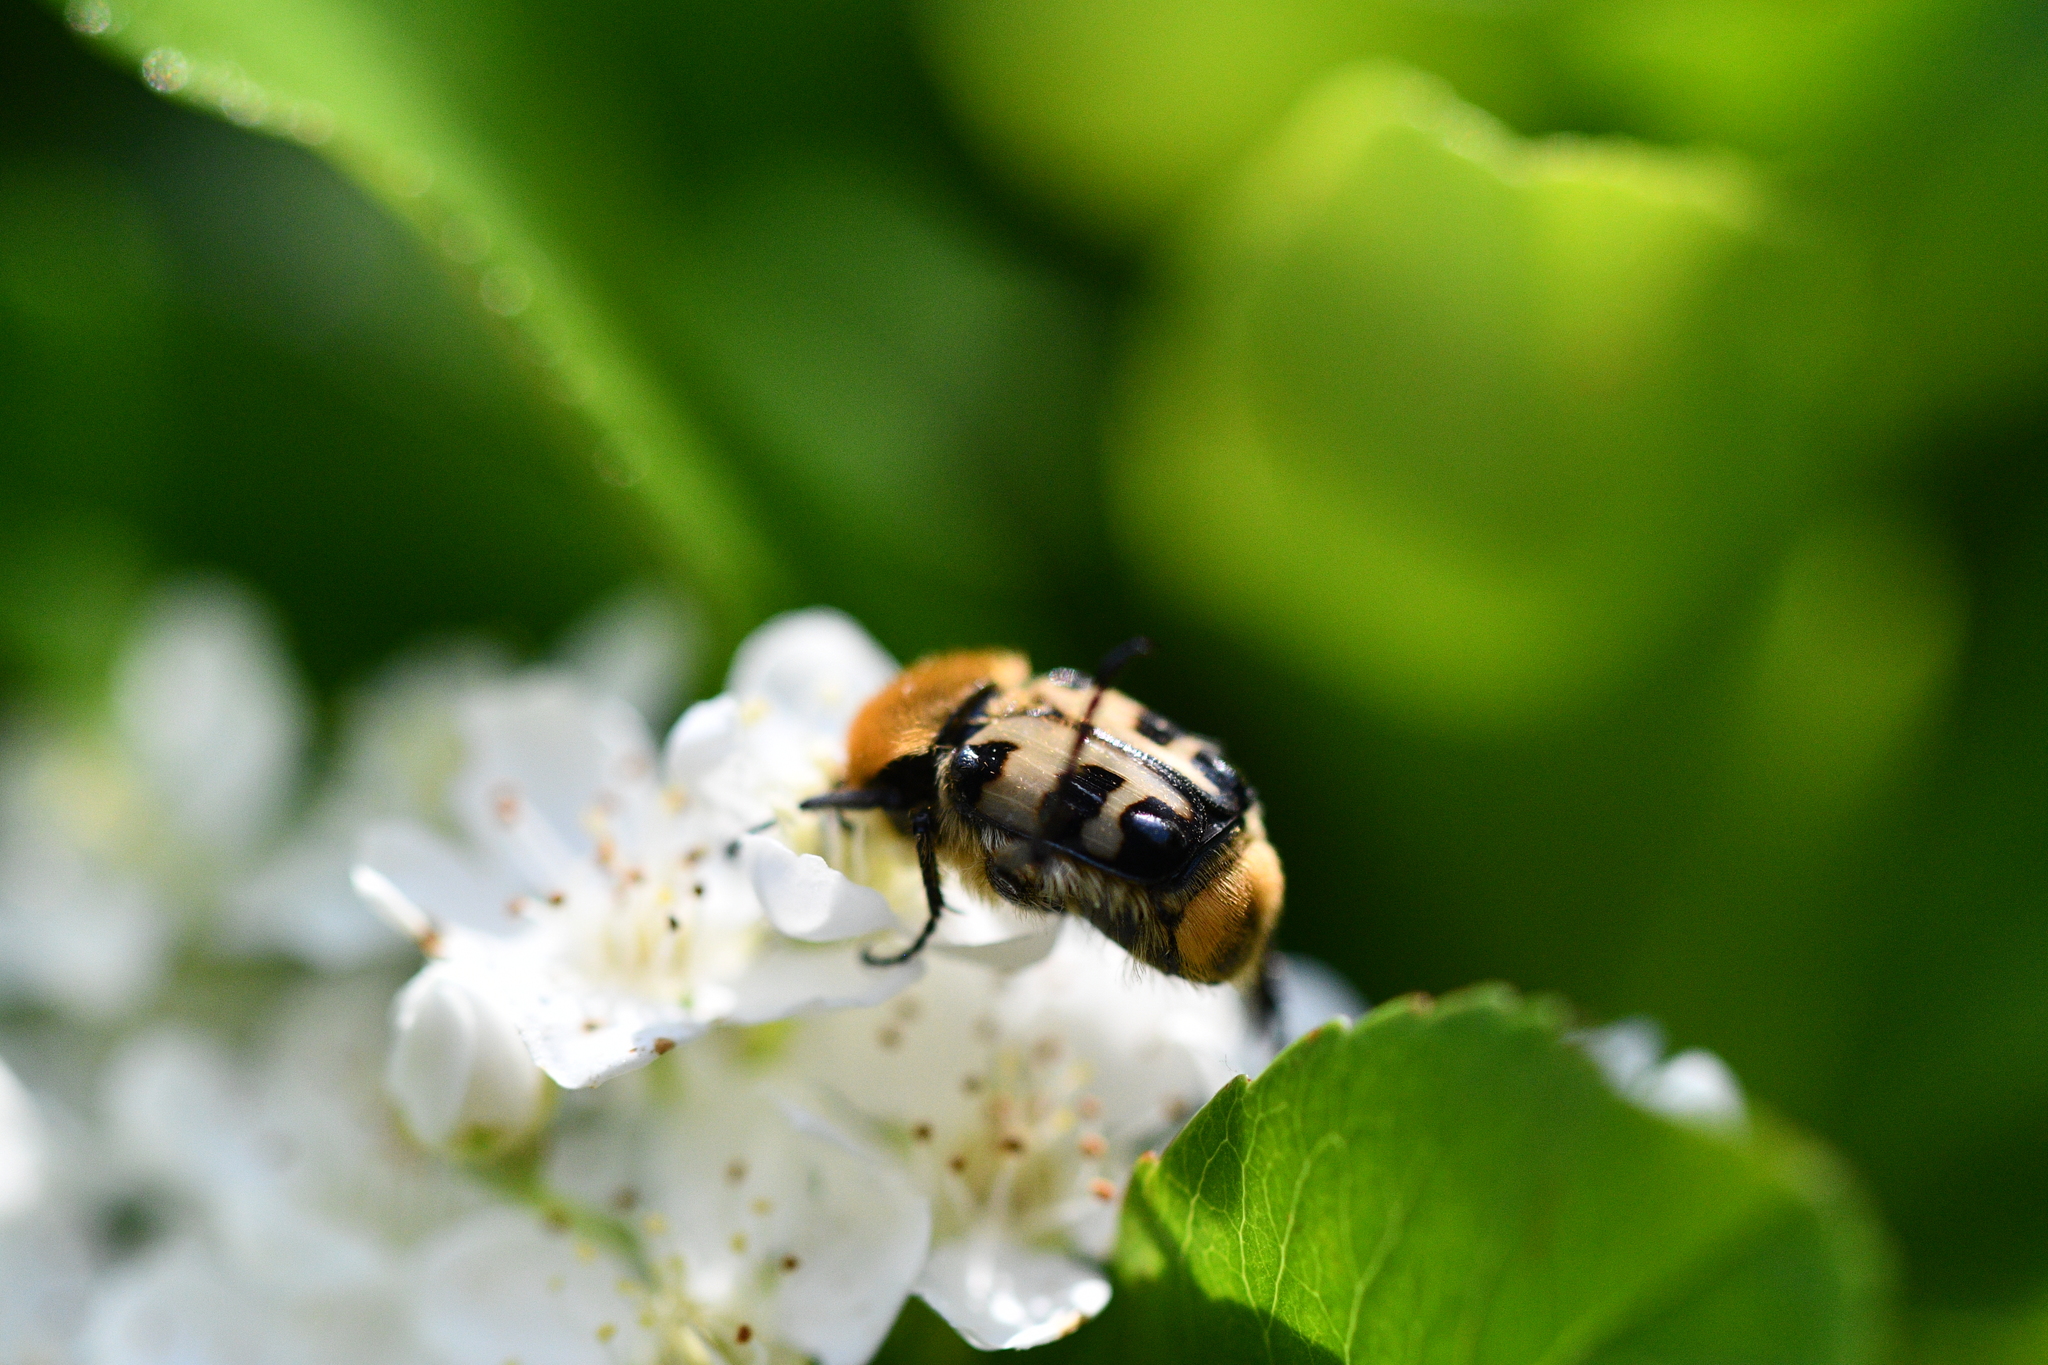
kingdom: Animalia
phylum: Arthropoda
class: Insecta
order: Coleoptera
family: Scarabaeidae
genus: Trichius
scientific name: Trichius gallicus
